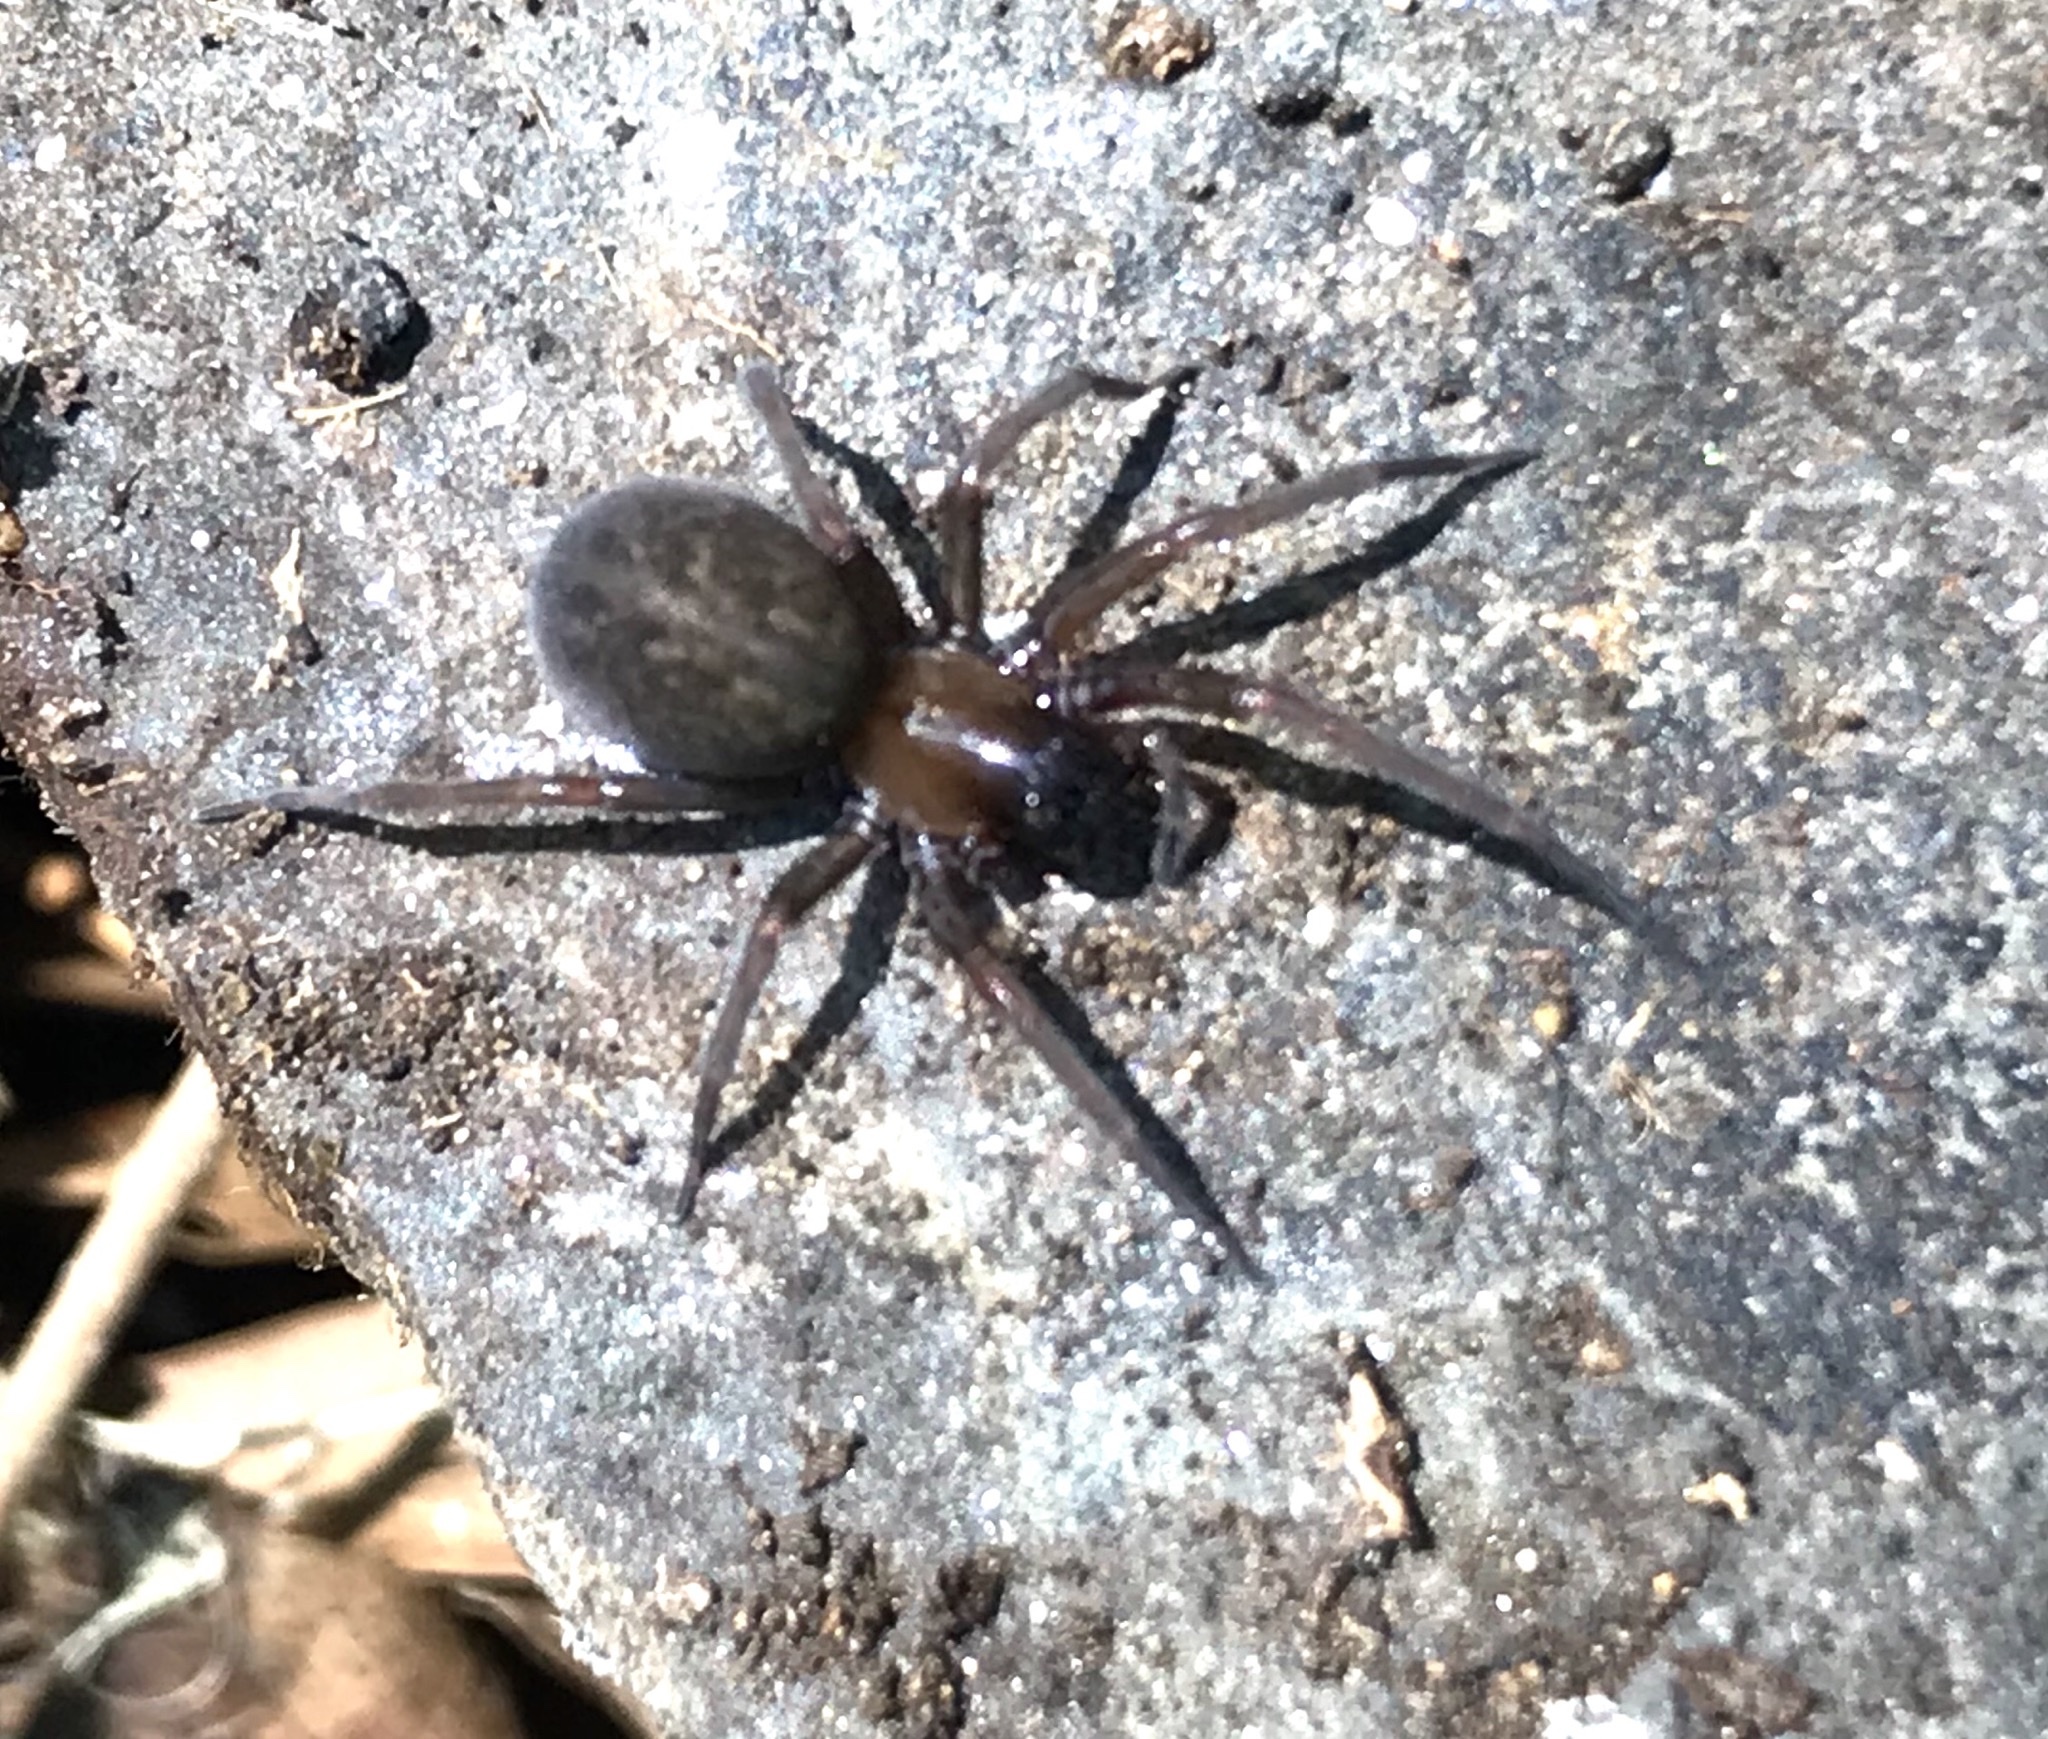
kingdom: Animalia
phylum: Arthropoda
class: Arachnida
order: Araneae
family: Desidae
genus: Metaltella
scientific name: Metaltella simoni
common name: Cribellate spider
